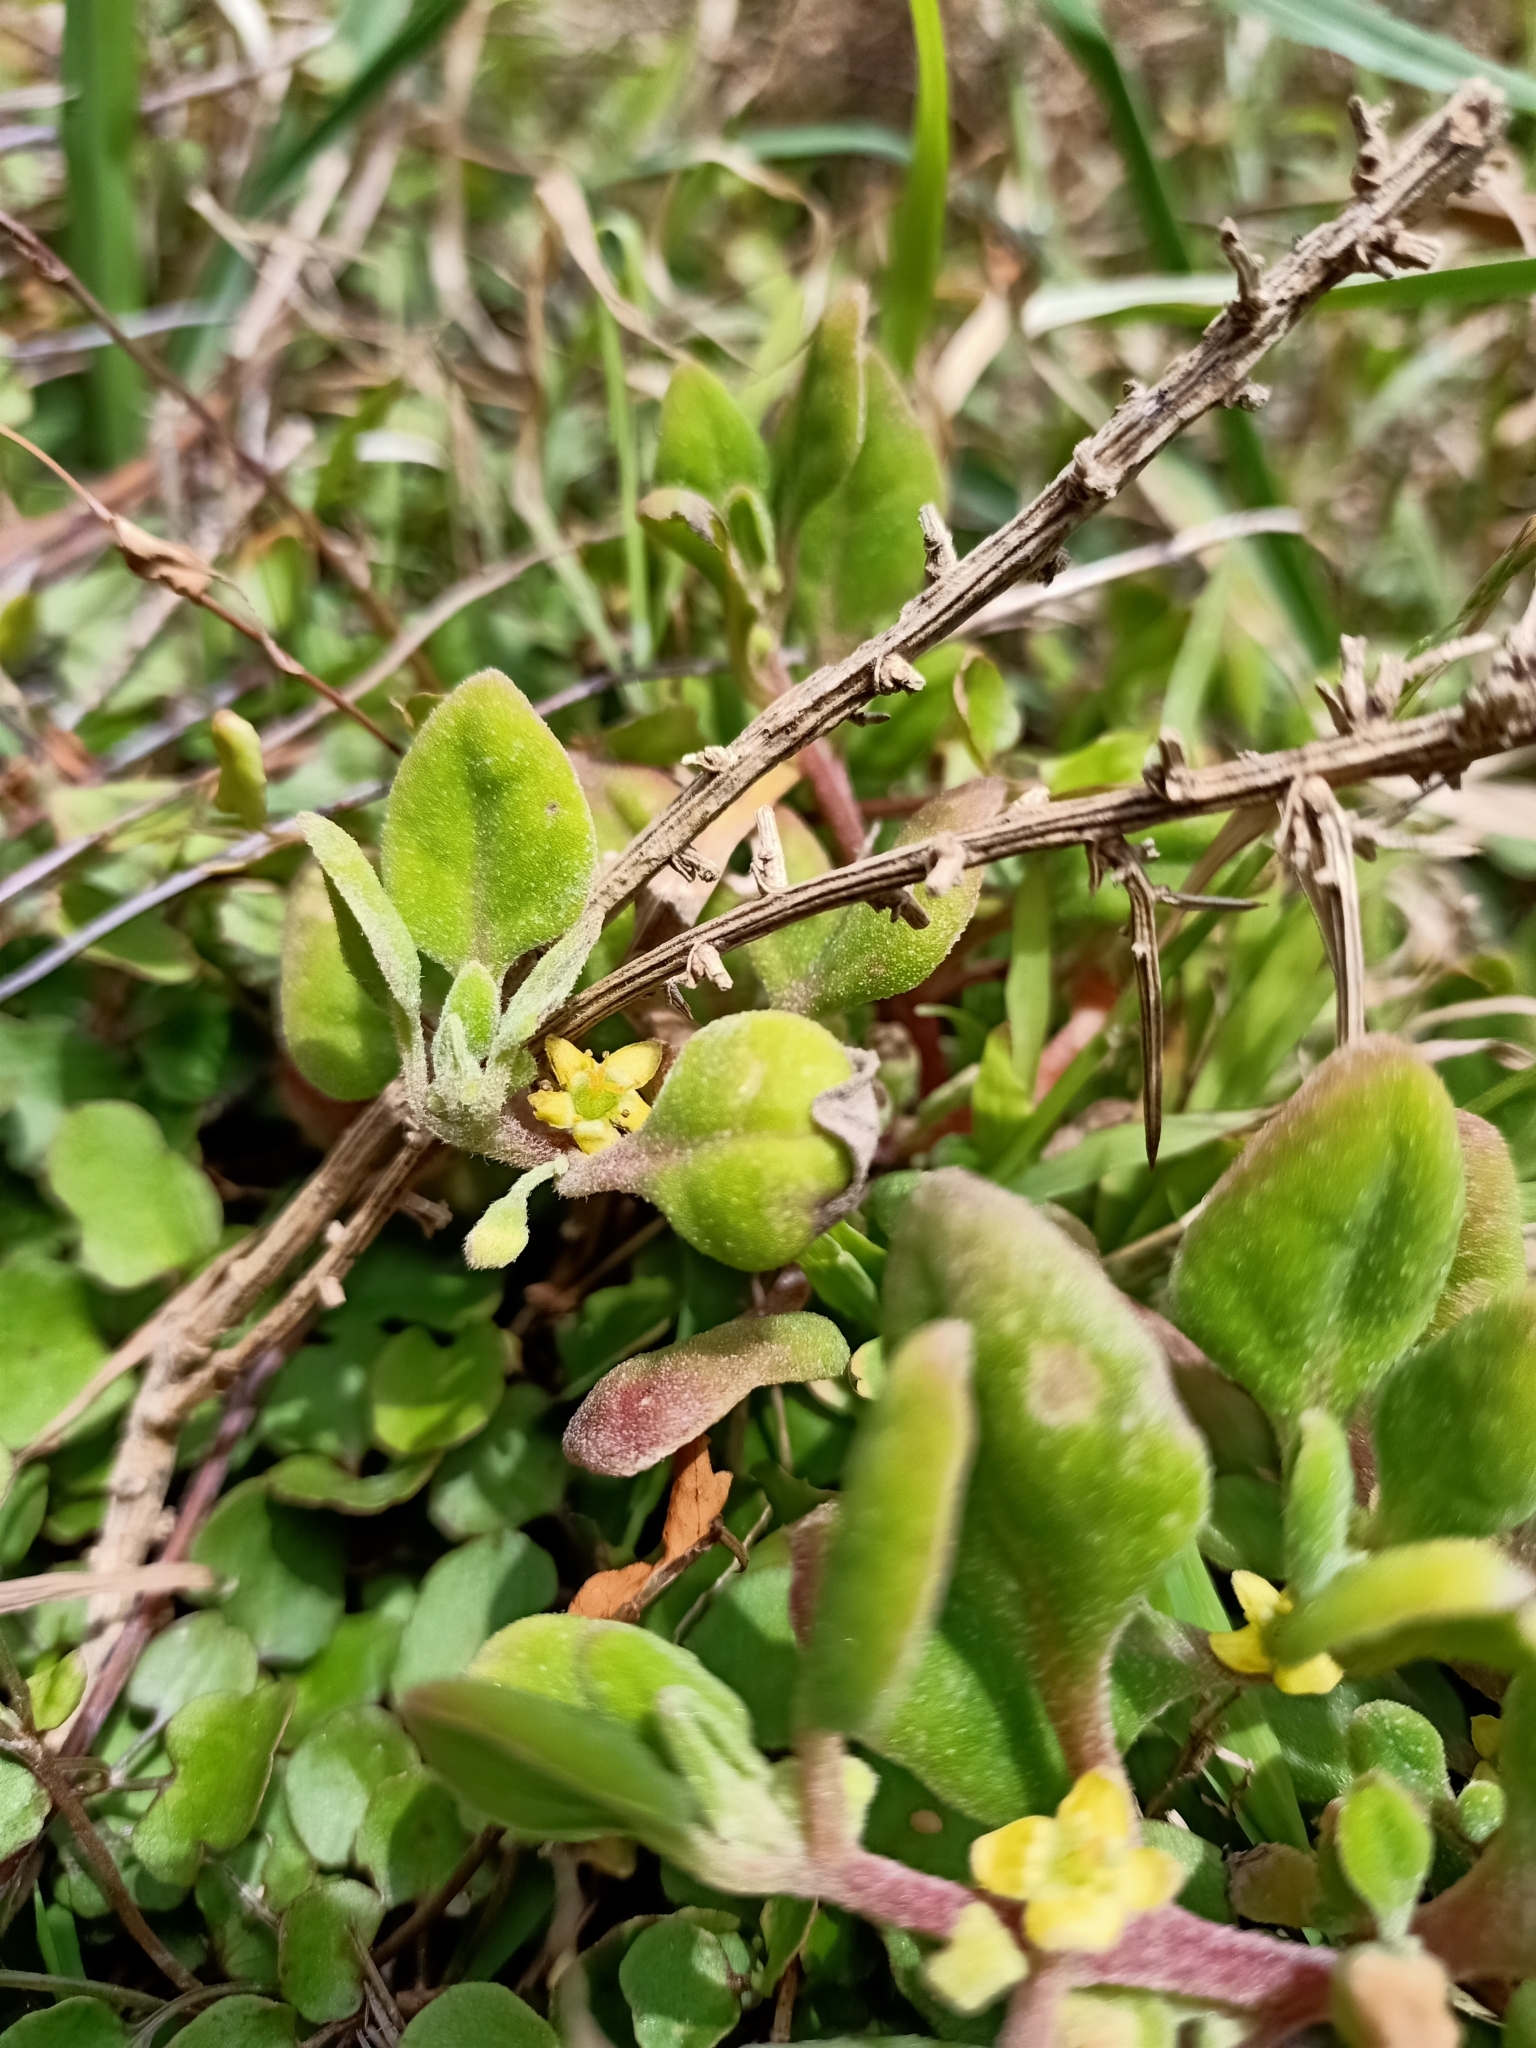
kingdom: Plantae
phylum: Tracheophyta
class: Magnoliopsida
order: Caryophyllales
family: Aizoaceae
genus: Tetragonia
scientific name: Tetragonia implexicoma
